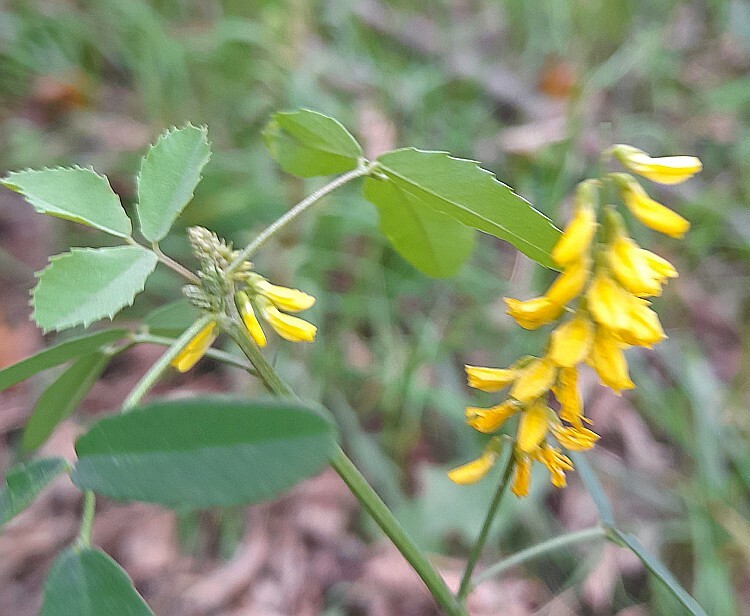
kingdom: Plantae
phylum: Tracheophyta
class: Magnoliopsida
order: Fabales
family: Fabaceae
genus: Melilotus
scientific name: Melilotus officinalis
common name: Sweetclover
